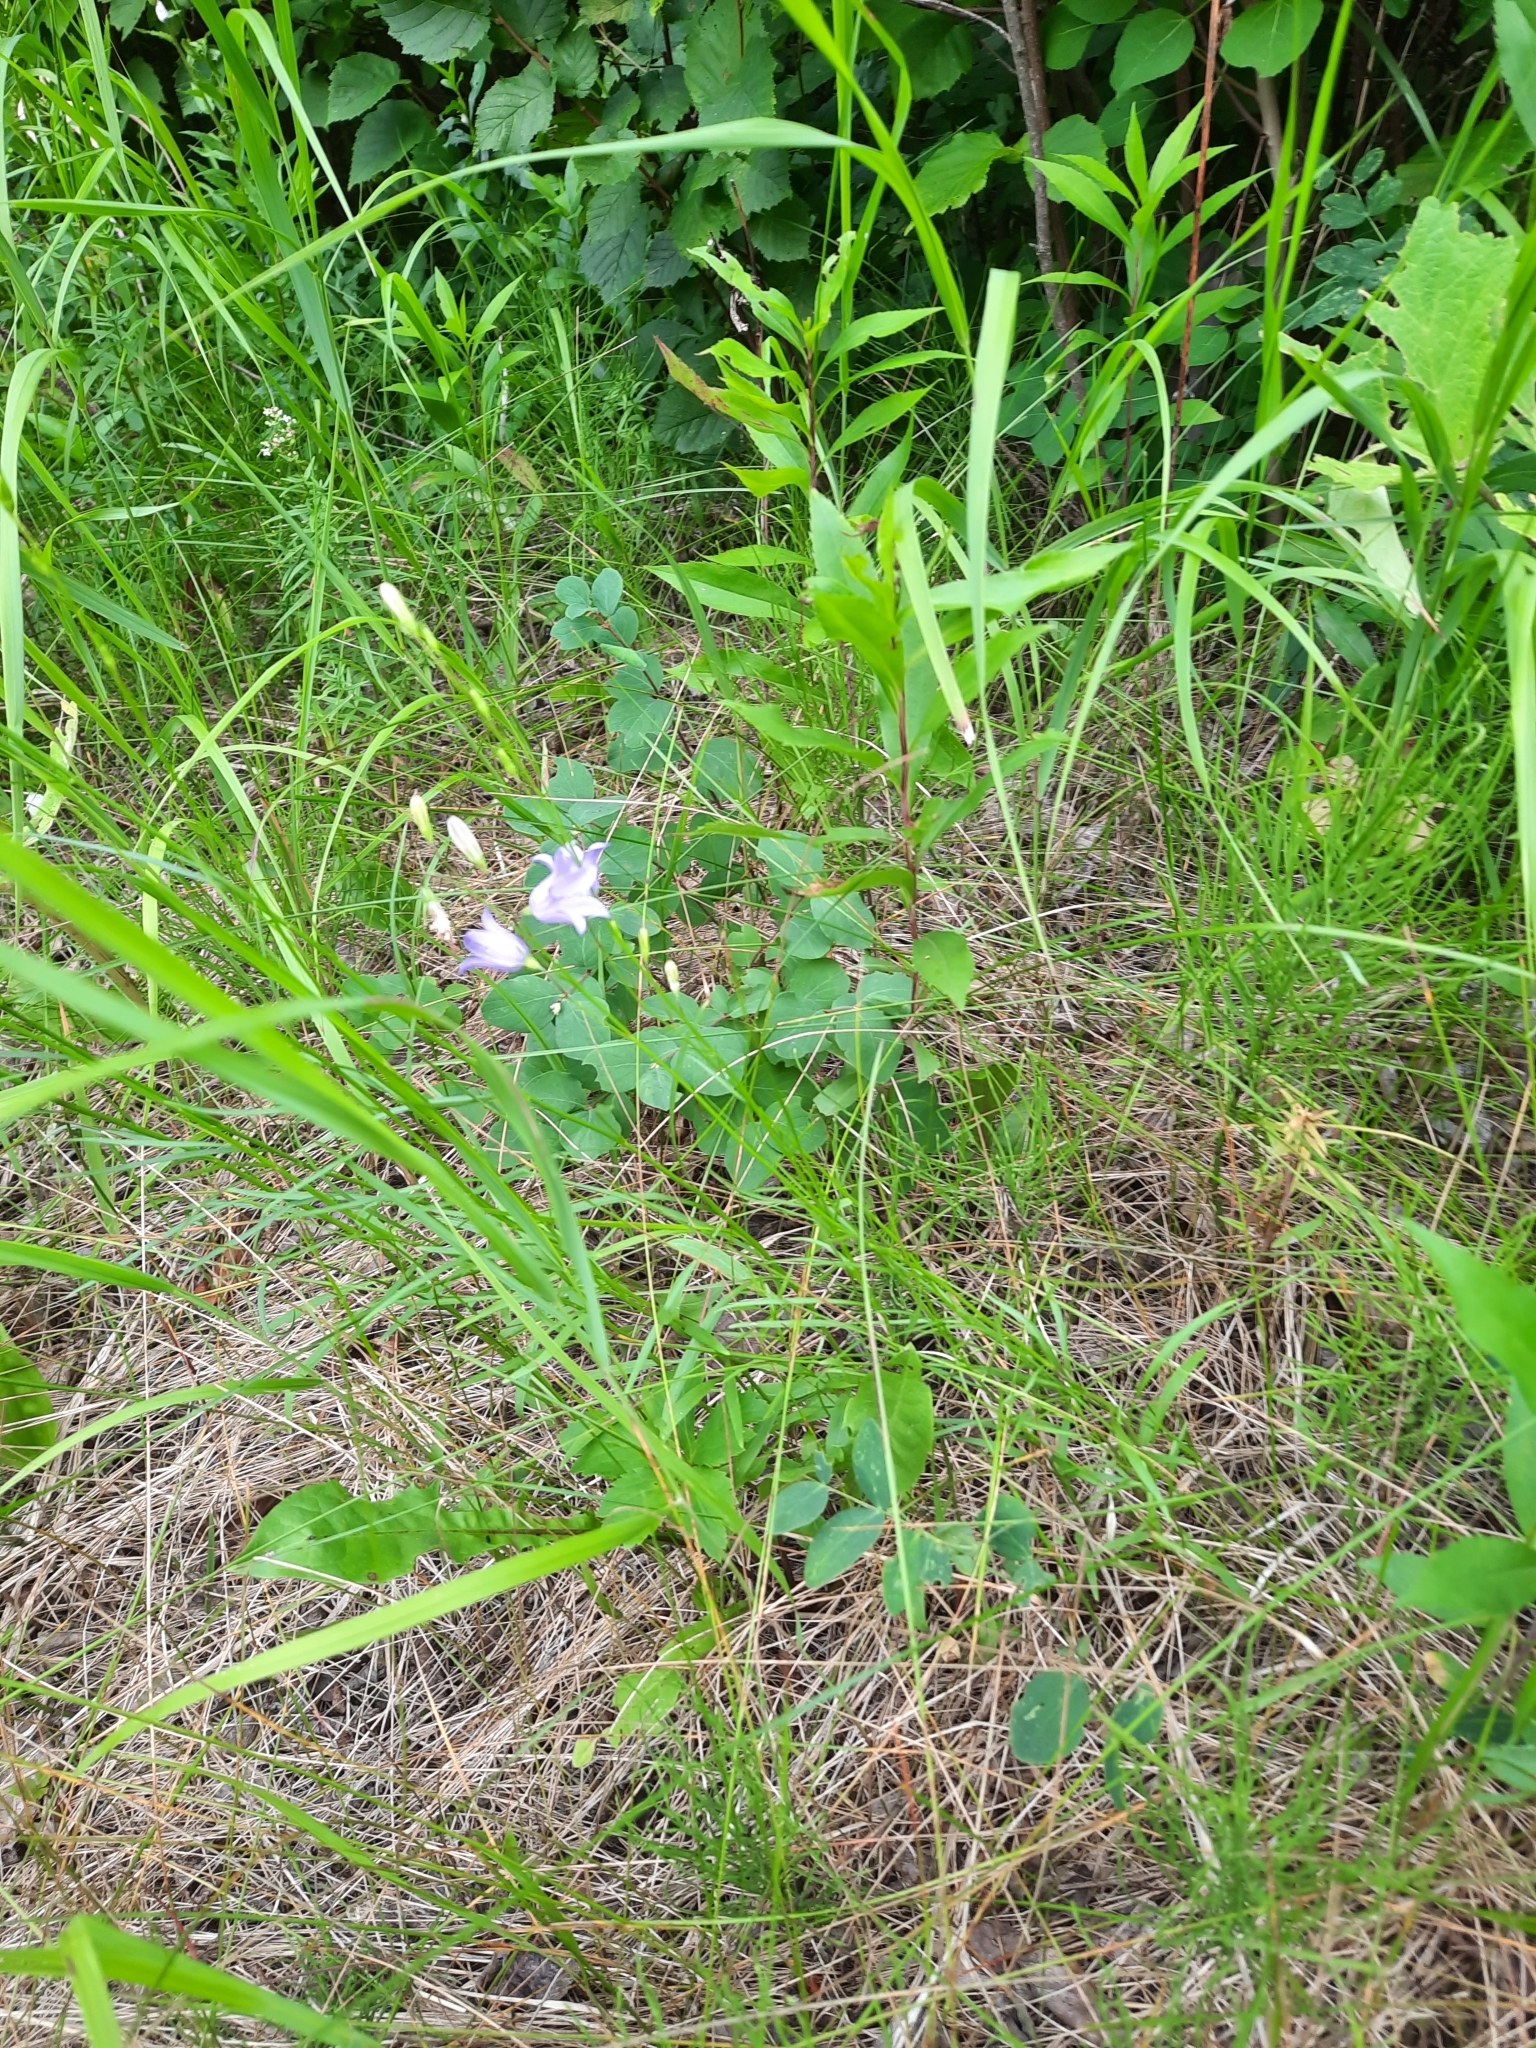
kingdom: Plantae
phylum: Tracheophyta
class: Magnoliopsida
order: Asterales
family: Campanulaceae
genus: Campanula
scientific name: Campanula alaskana
